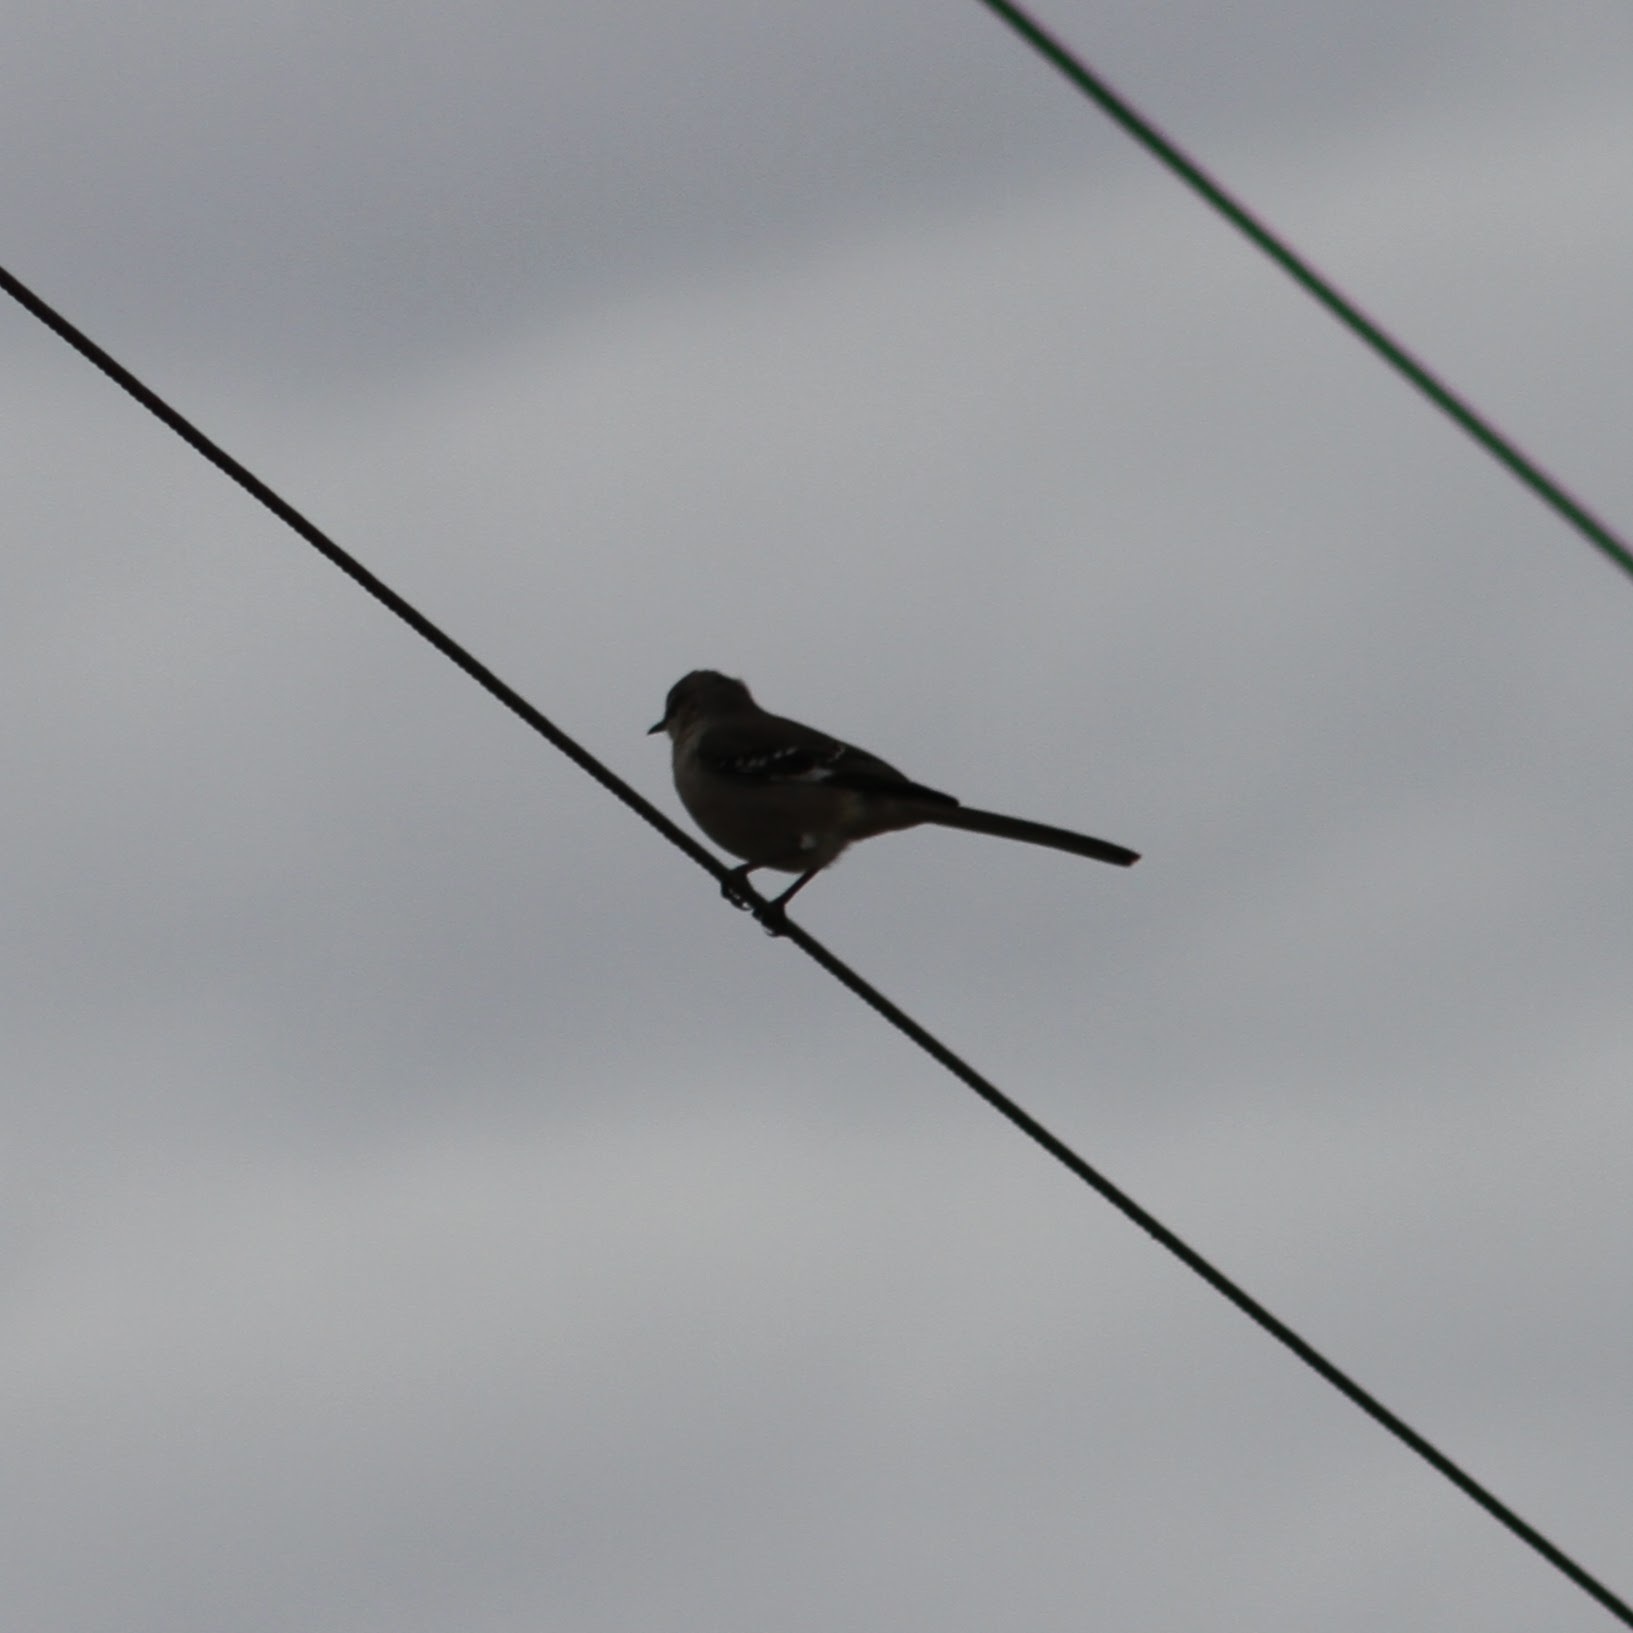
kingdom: Animalia
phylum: Chordata
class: Aves
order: Passeriformes
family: Mimidae
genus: Mimus
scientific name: Mimus polyglottos
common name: Northern mockingbird
